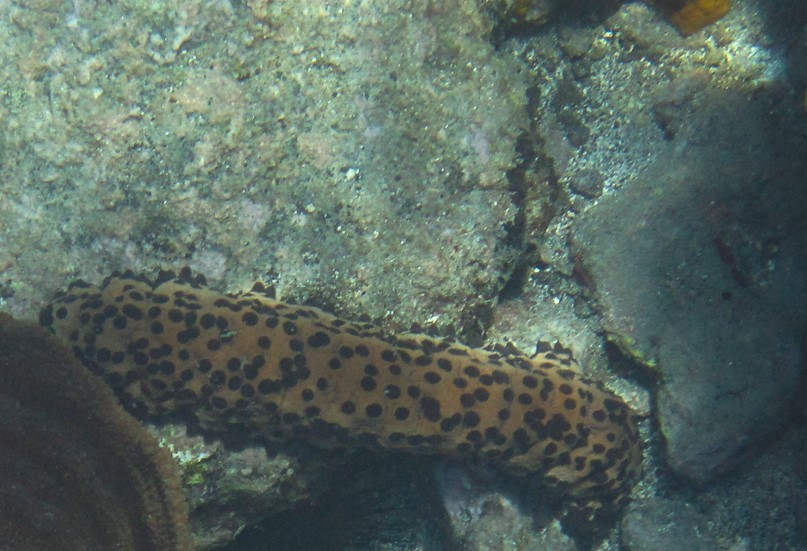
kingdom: Animalia
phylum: Echinodermata
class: Holothuroidea
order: Synallactida
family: Stichopodidae
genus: Isostichopus
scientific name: Isostichopus badionotus
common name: Chocolate chip cucumber
